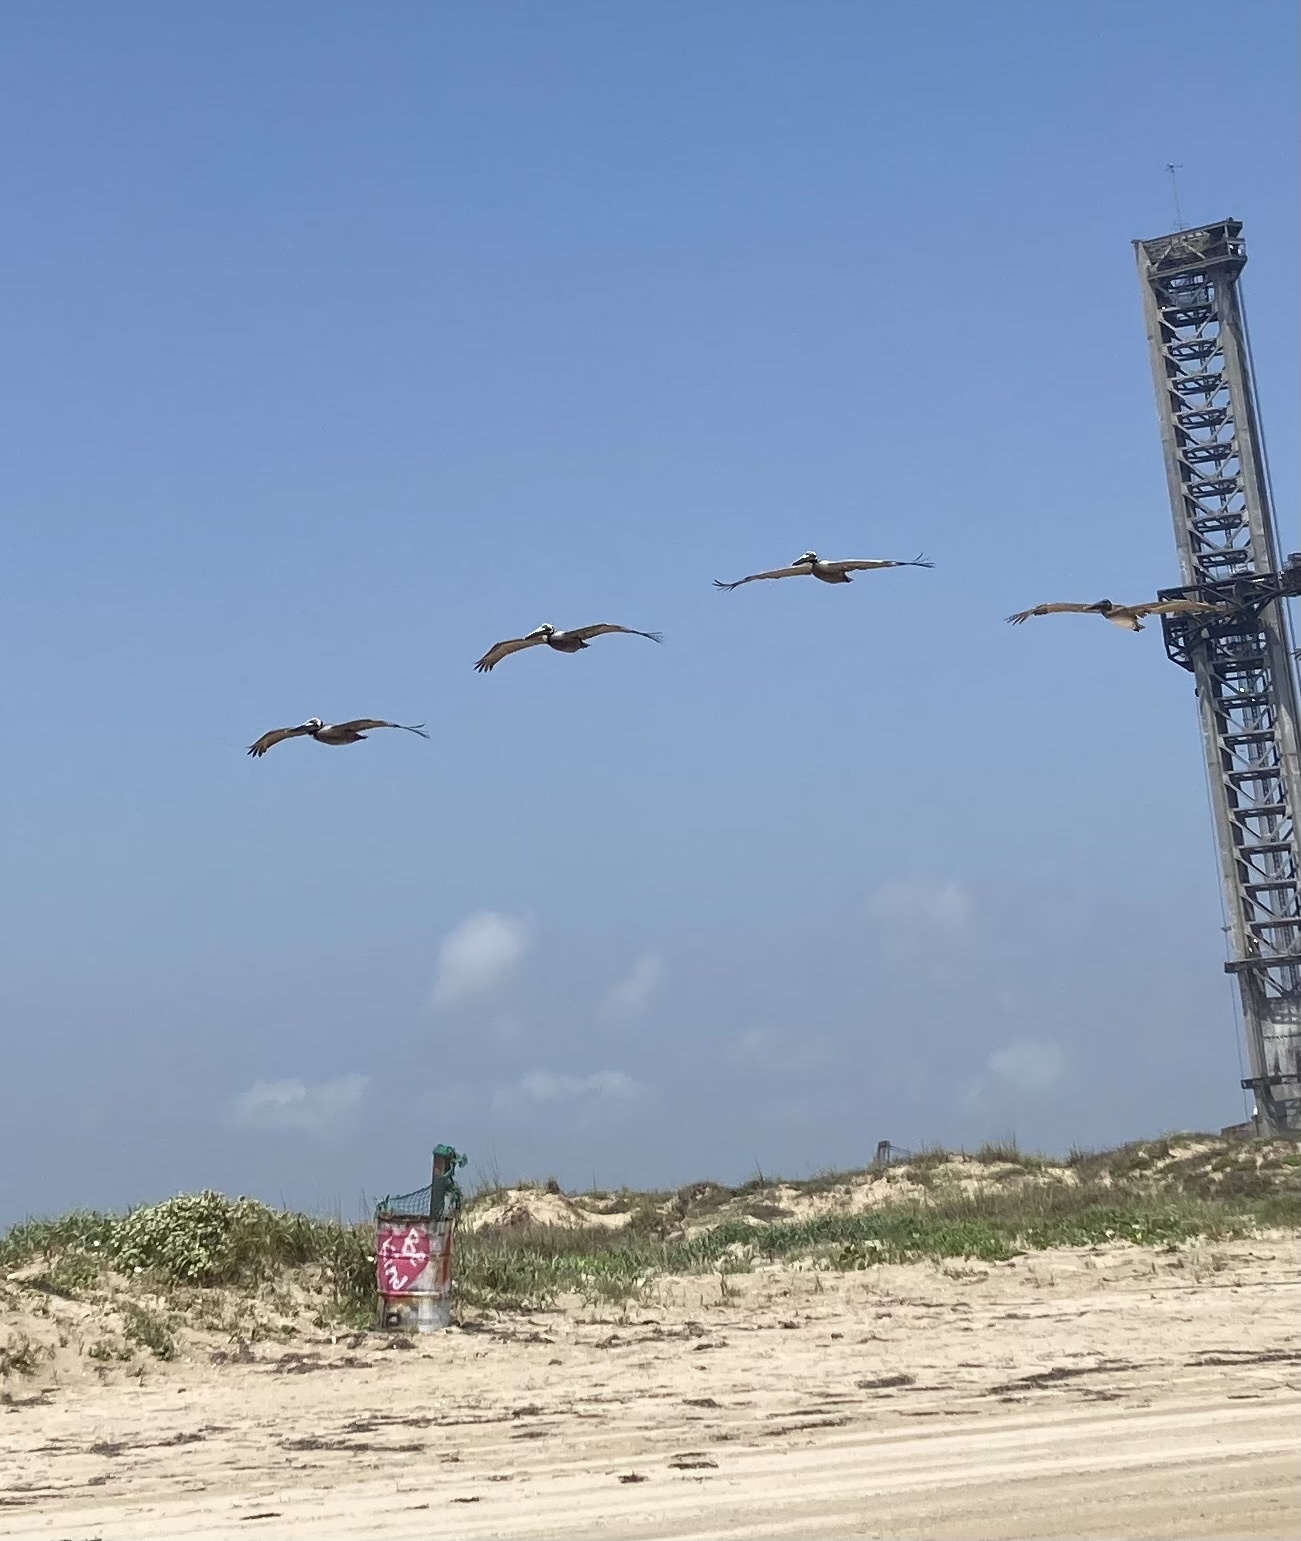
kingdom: Animalia
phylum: Chordata
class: Aves
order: Pelecaniformes
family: Pelecanidae
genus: Pelecanus
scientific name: Pelecanus occidentalis
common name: Brown pelican
